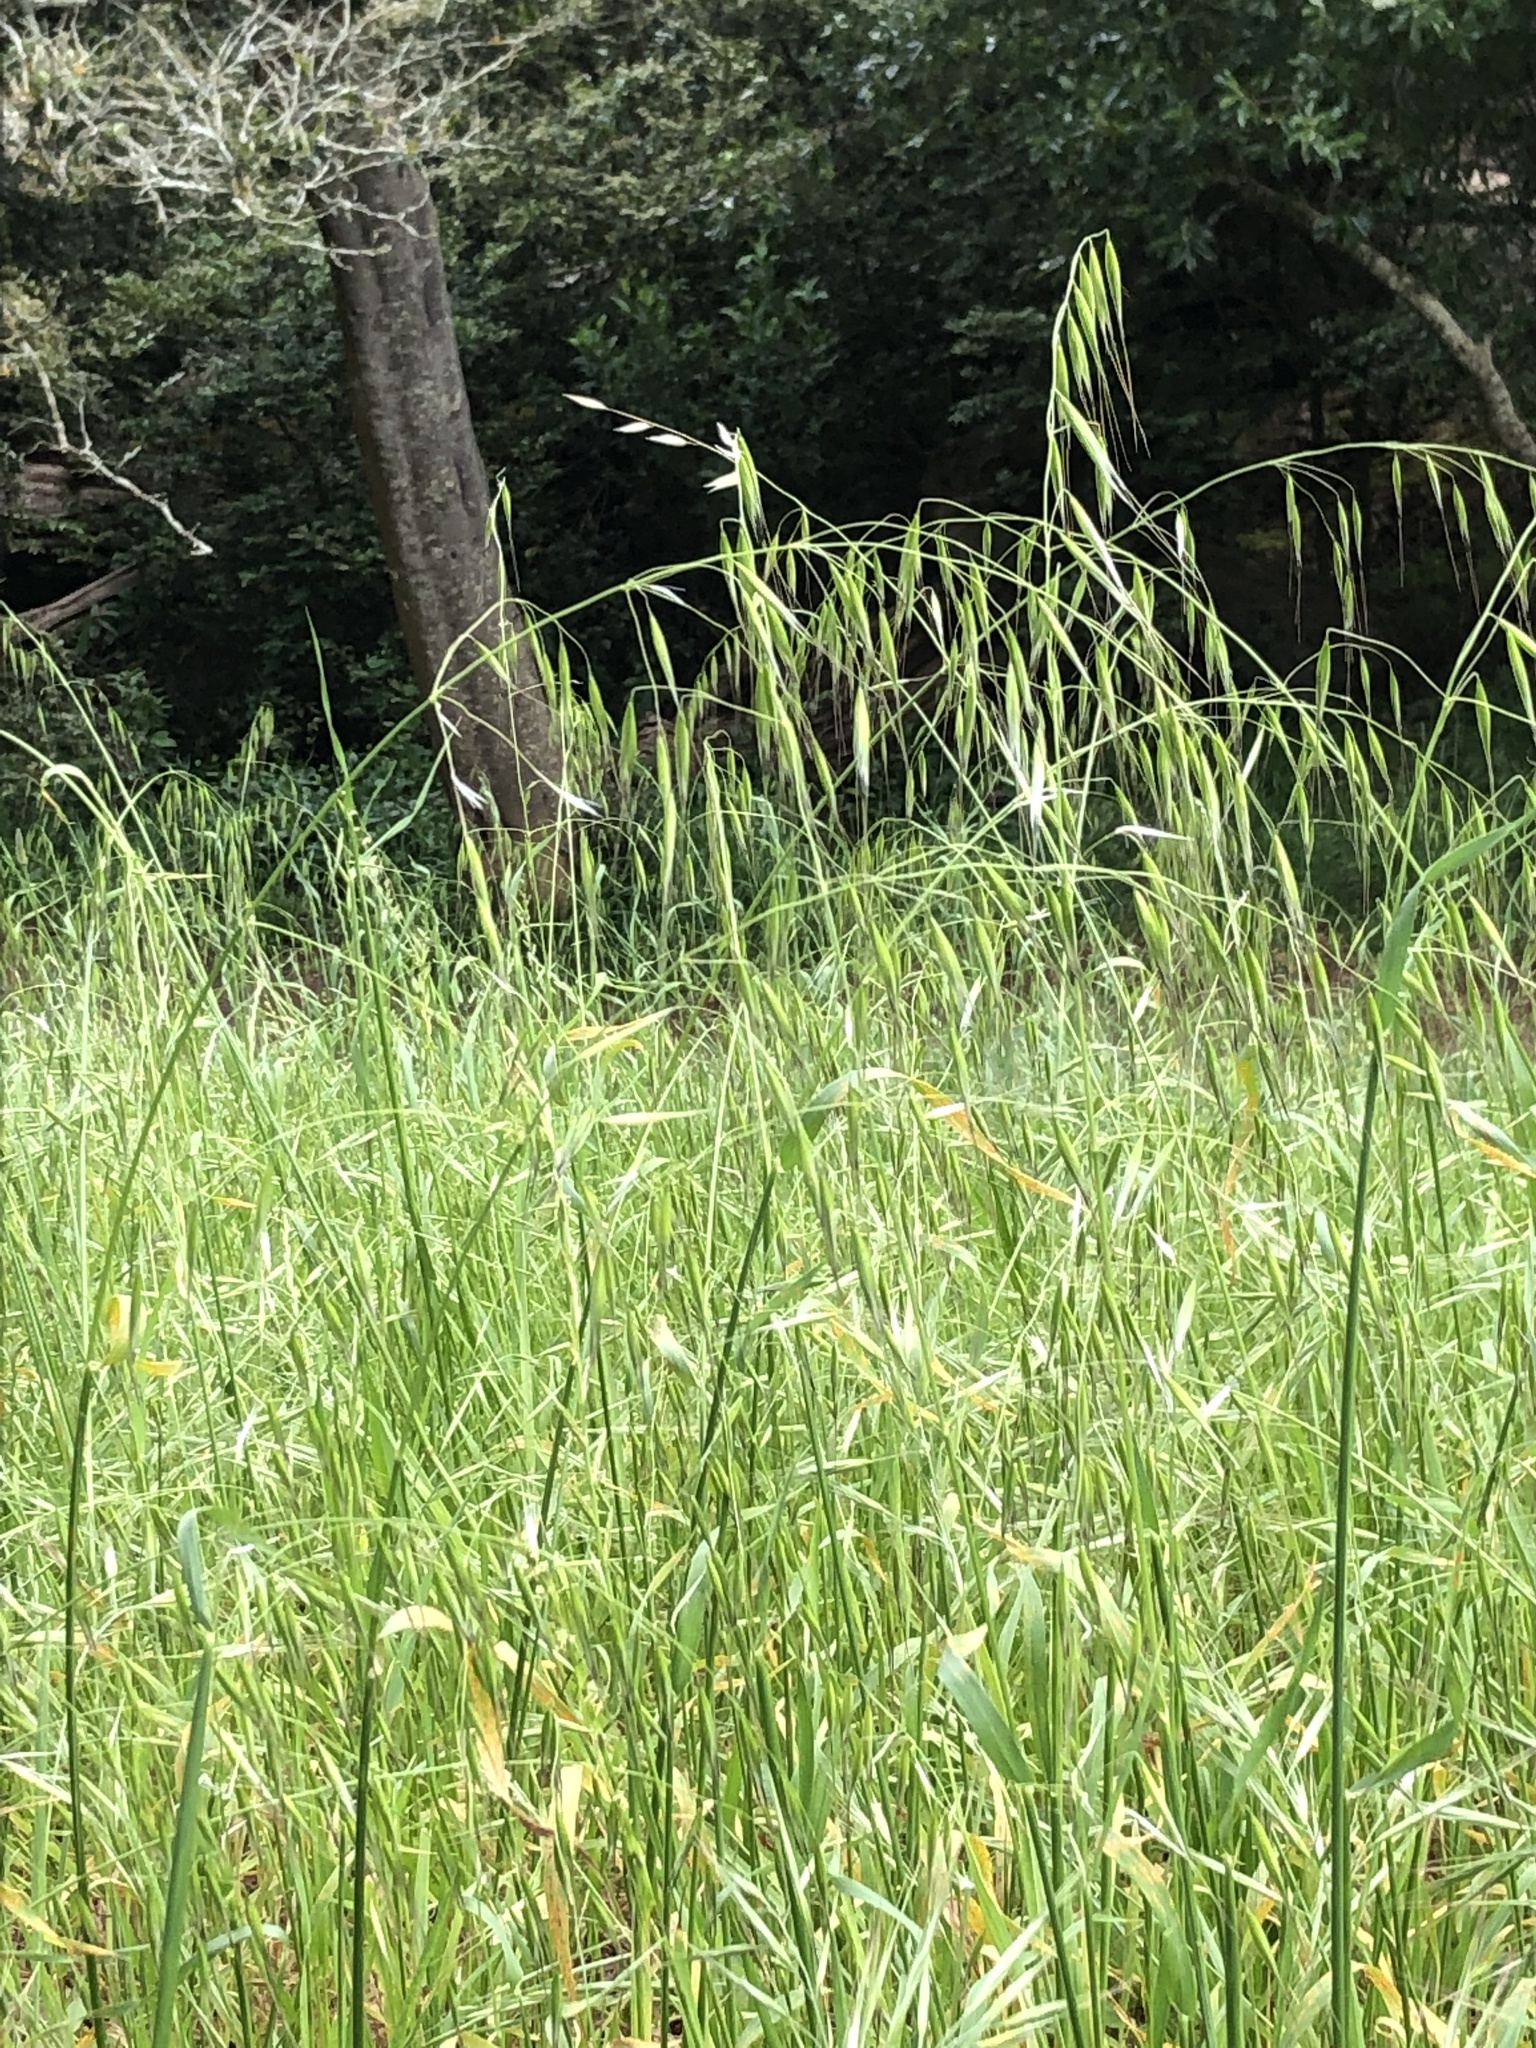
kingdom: Plantae
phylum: Tracheophyta
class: Liliopsida
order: Poales
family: Poaceae
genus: Avena
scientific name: Avena fatua
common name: Wild oat
